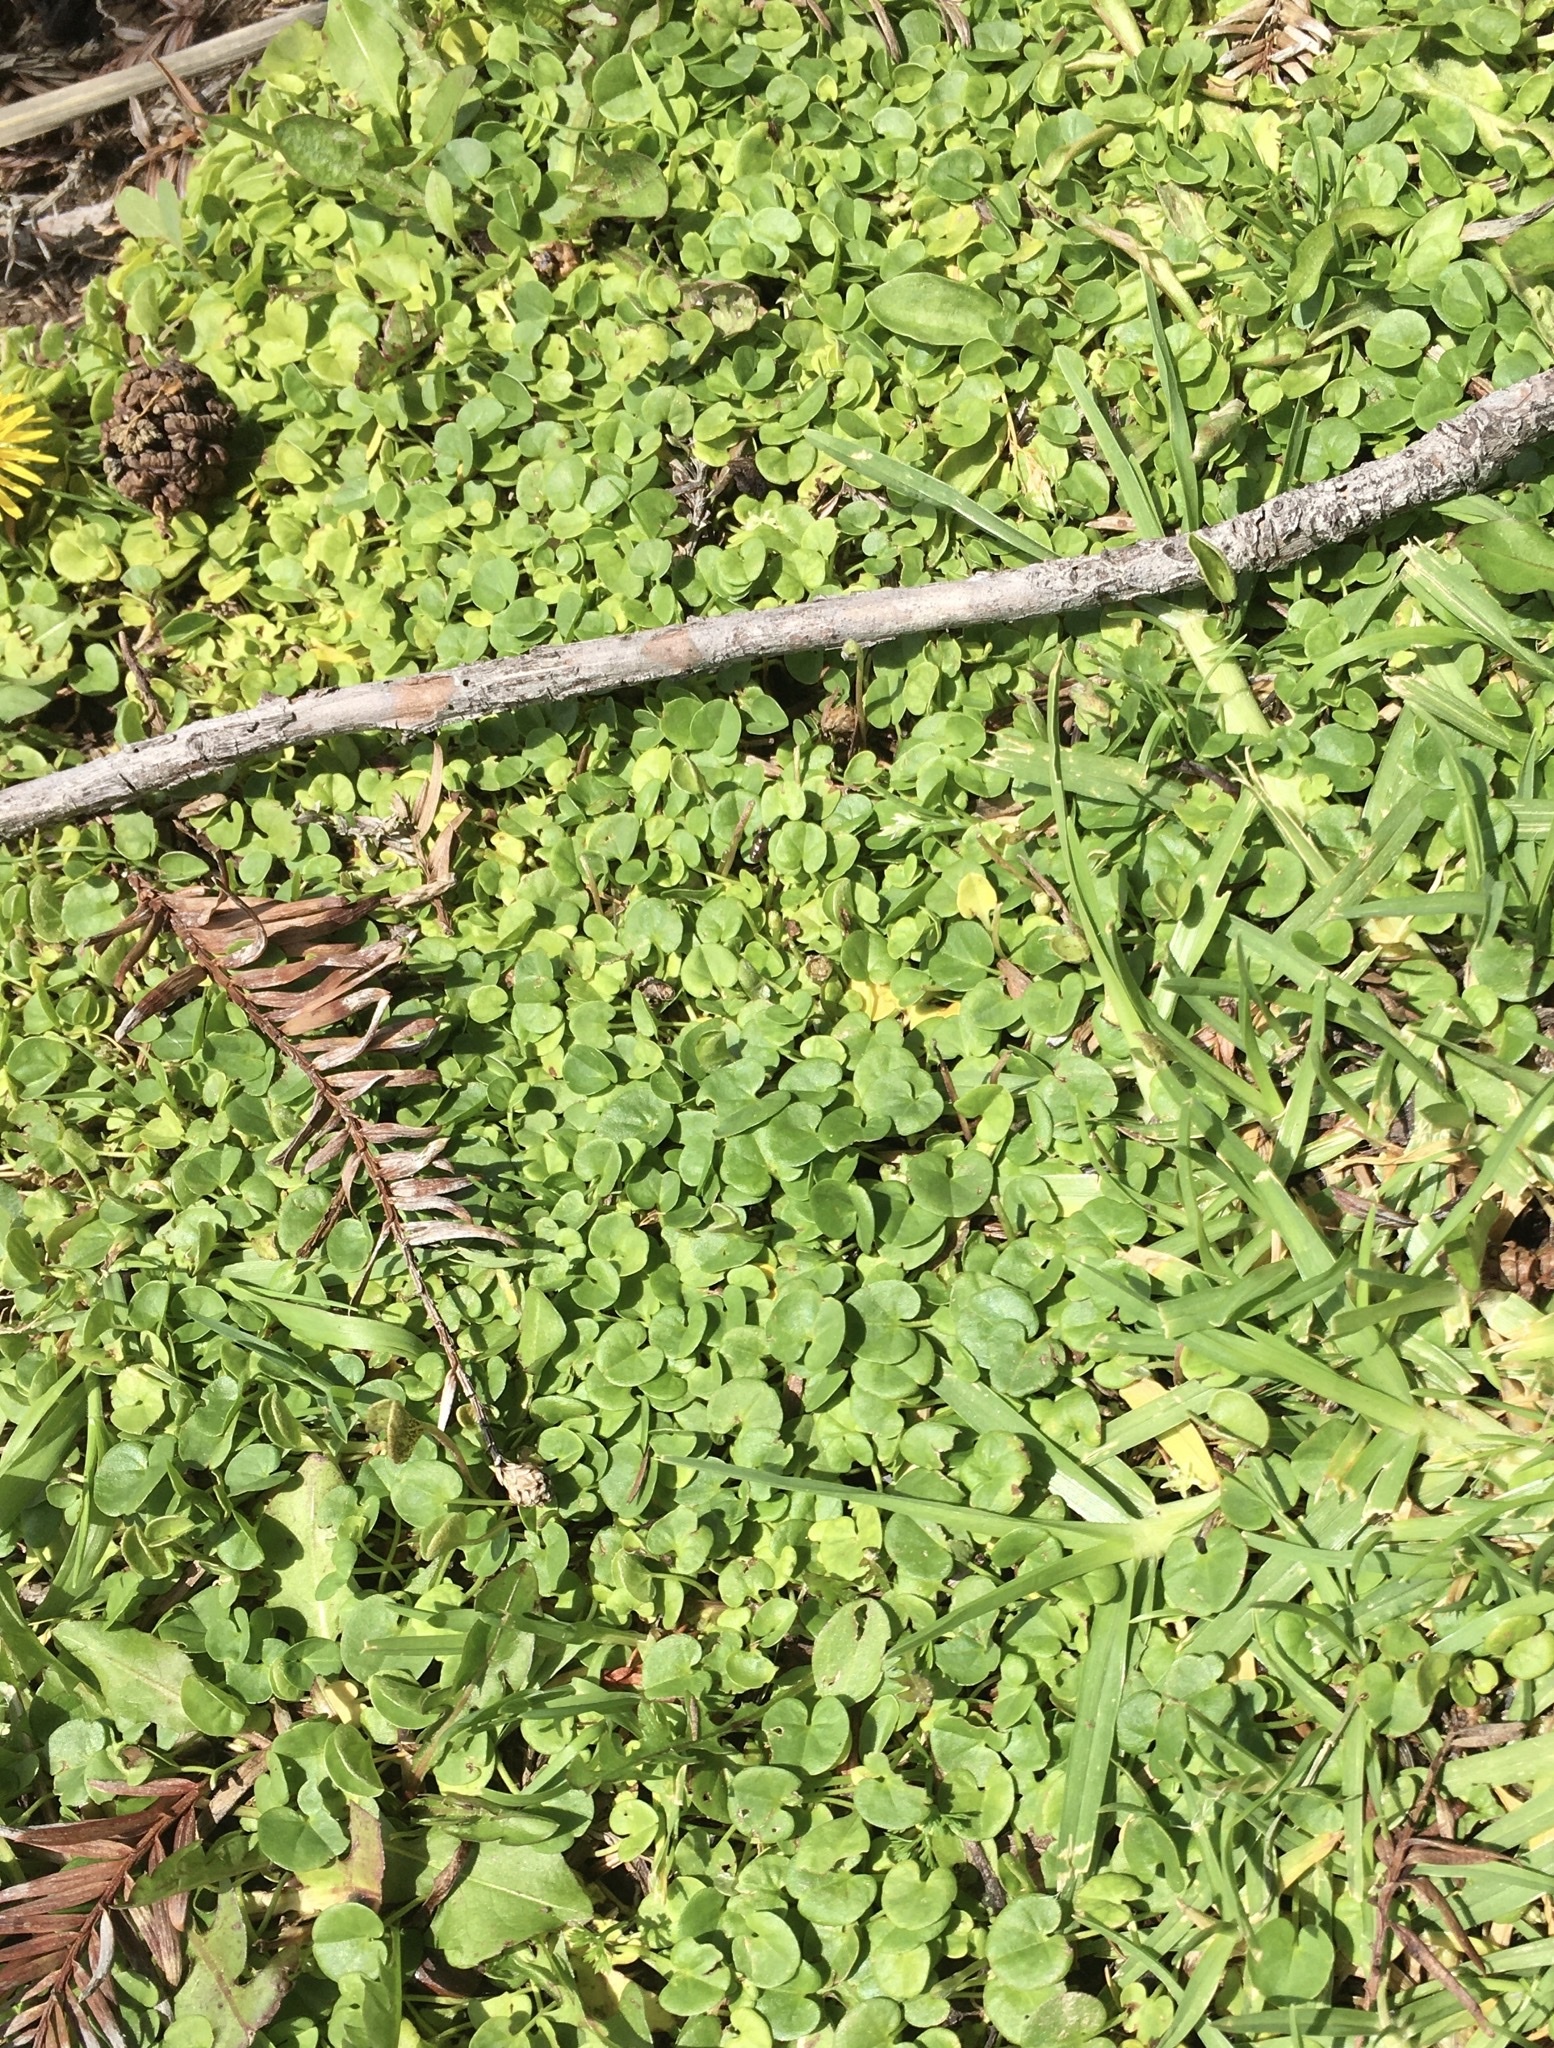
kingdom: Plantae
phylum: Tracheophyta
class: Magnoliopsida
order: Solanales
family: Convolvulaceae
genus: Dichondra
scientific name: Dichondra micrantha
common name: Kidneyweed
